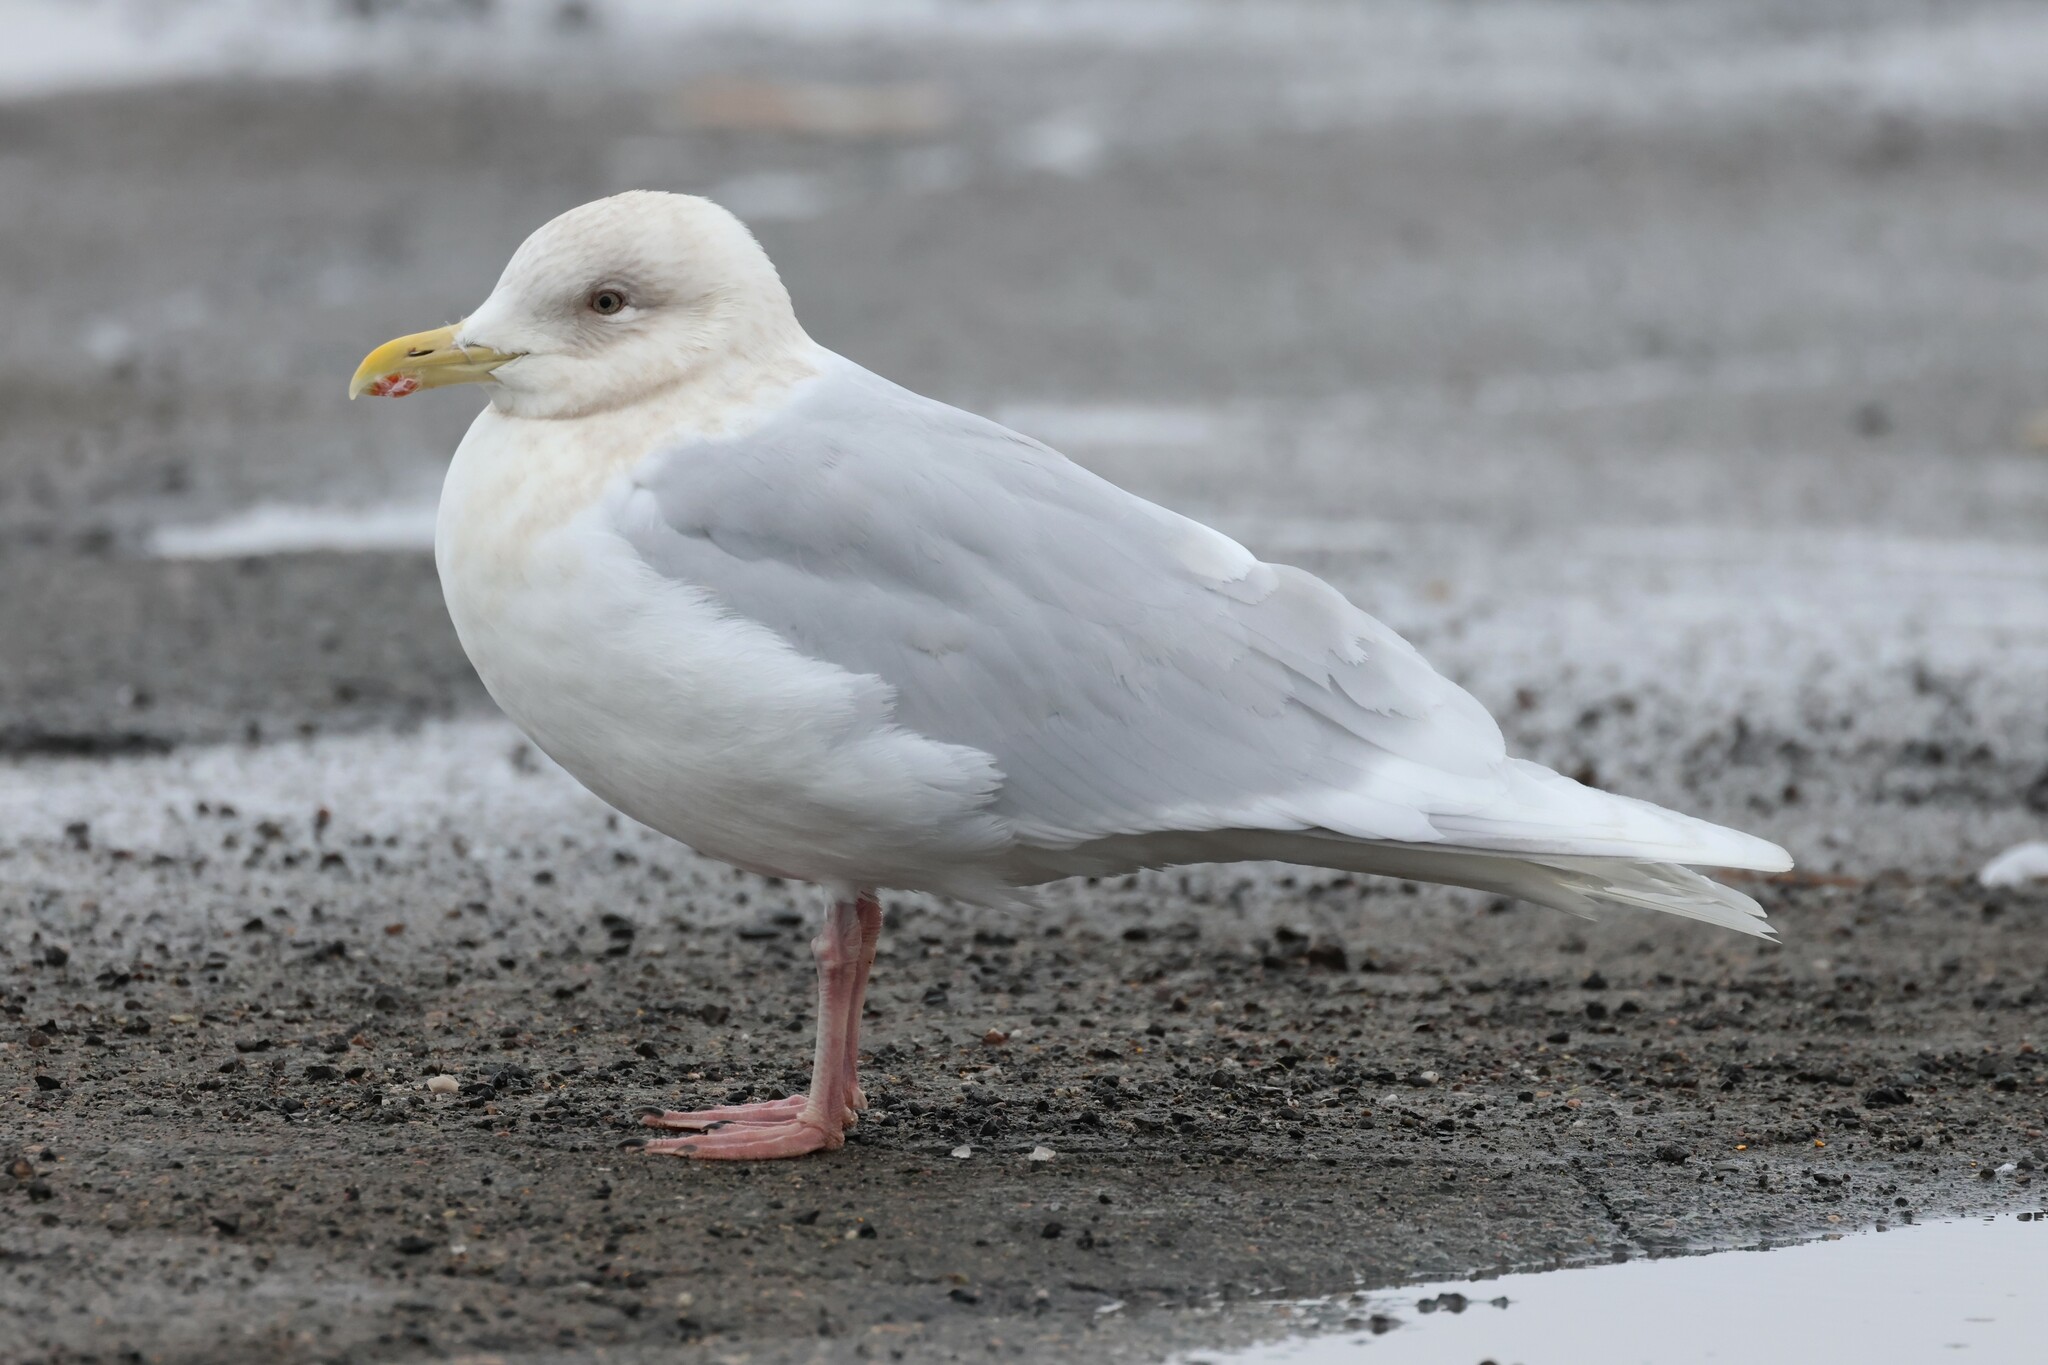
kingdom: Animalia
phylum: Chordata
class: Aves
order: Charadriiformes
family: Laridae
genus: Larus
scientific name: Larus glaucoides
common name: Iceland gull
